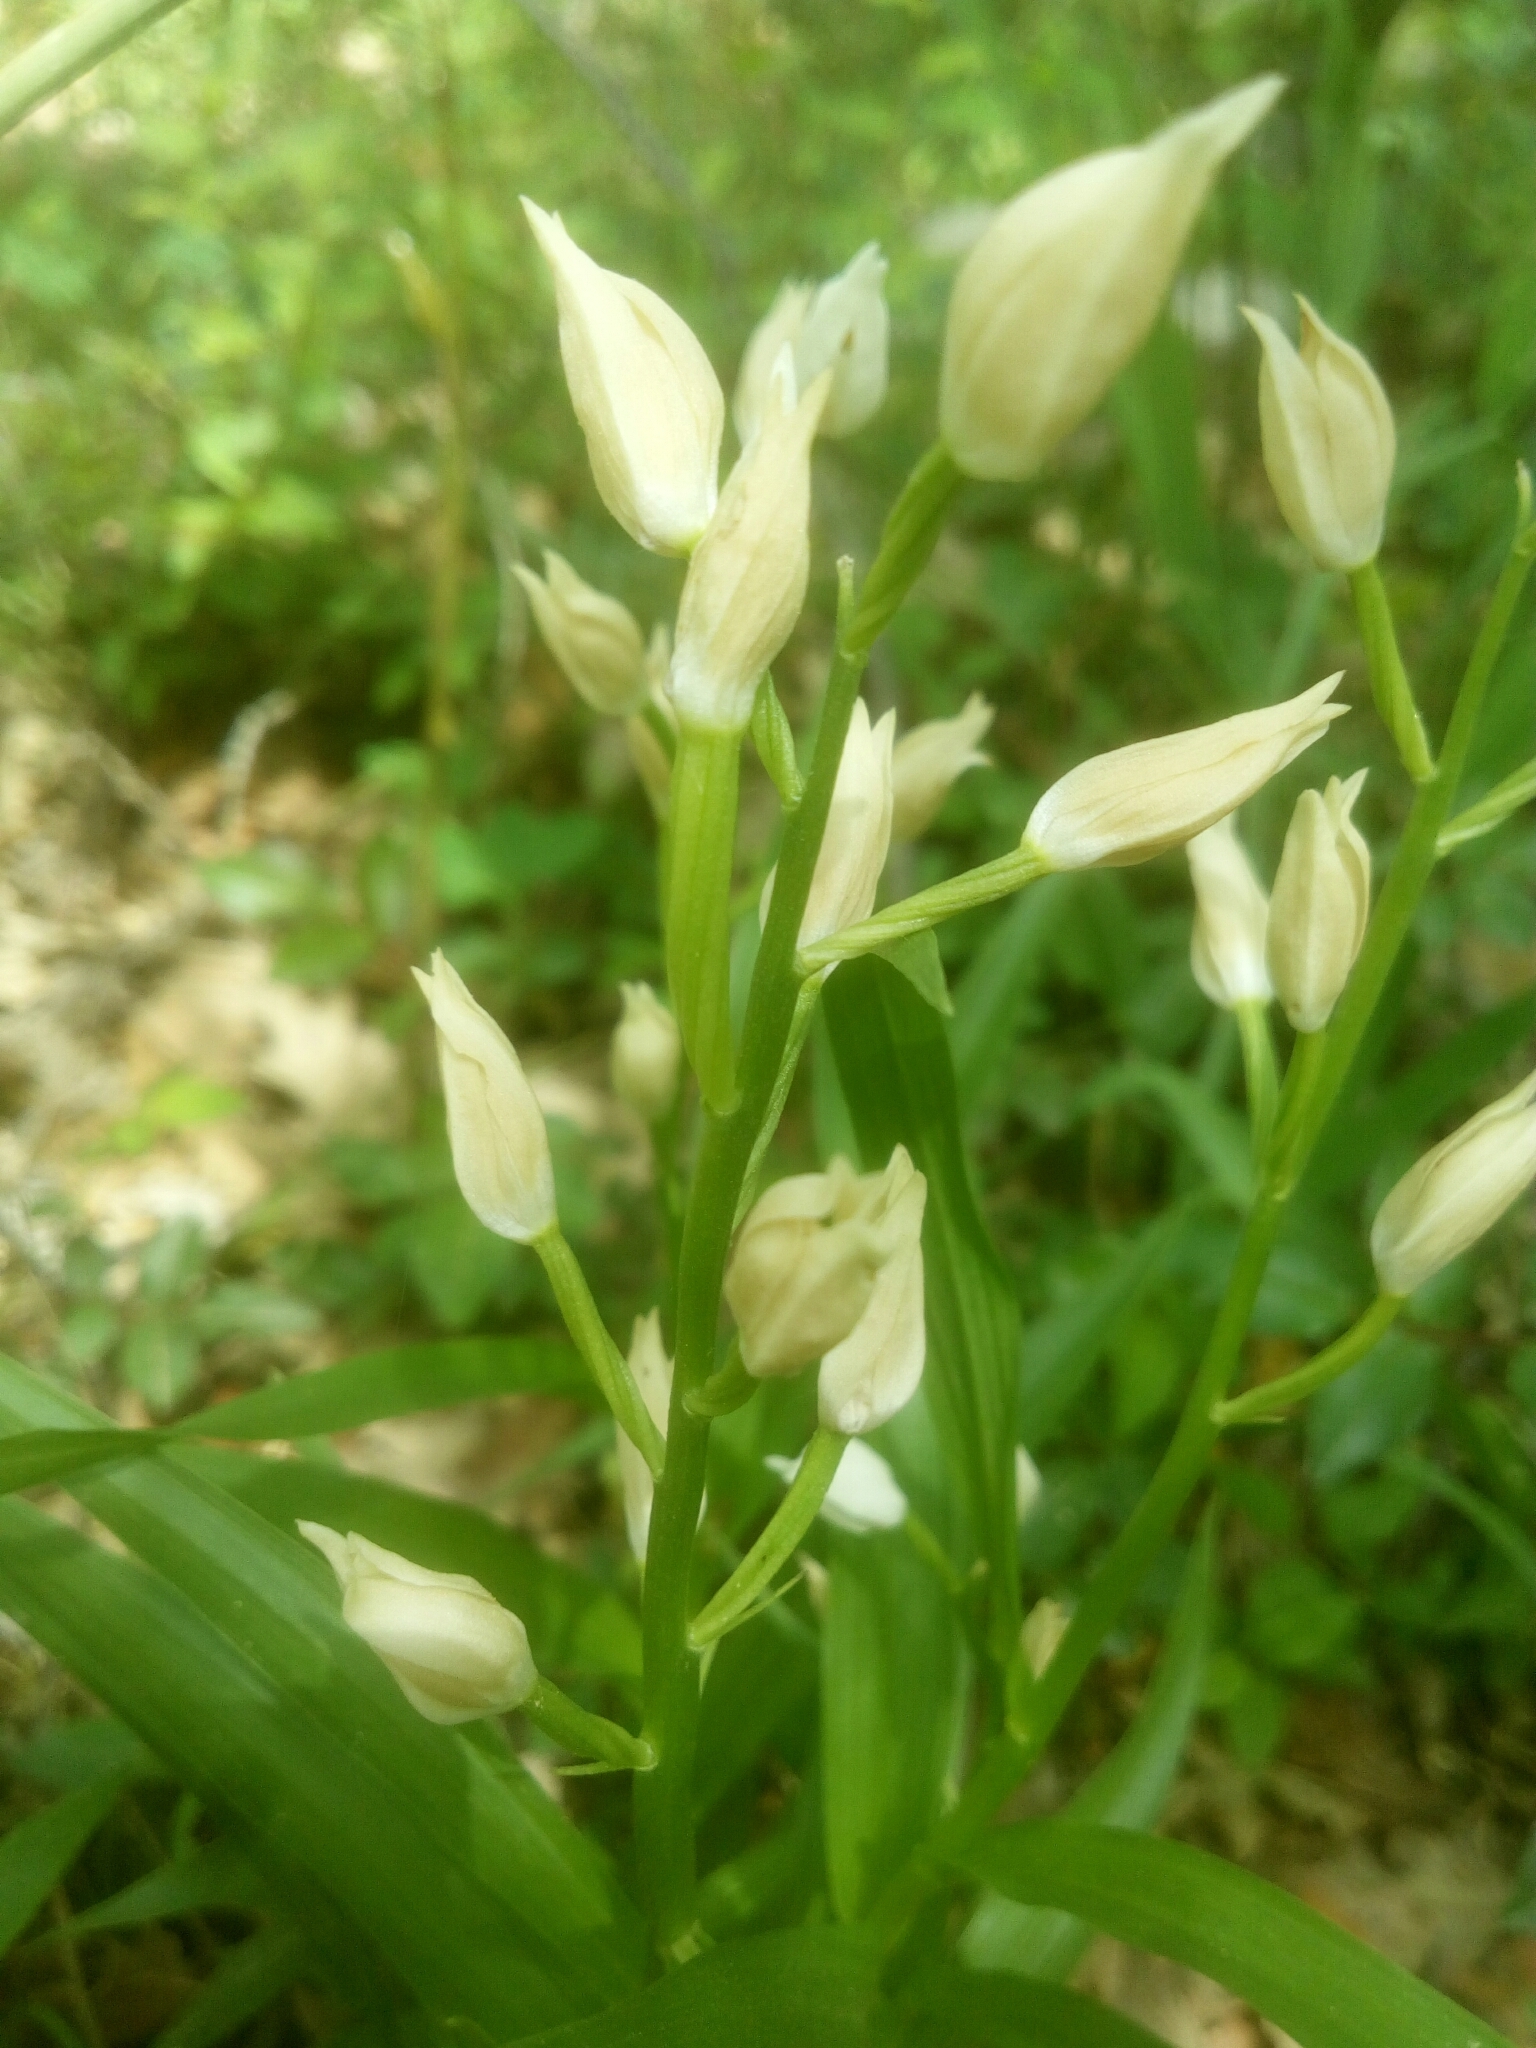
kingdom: Plantae
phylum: Tracheophyta
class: Liliopsida
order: Asparagales
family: Orchidaceae
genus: Cephalanthera
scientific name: Cephalanthera longifolia
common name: Narrow-leaved helleborine
